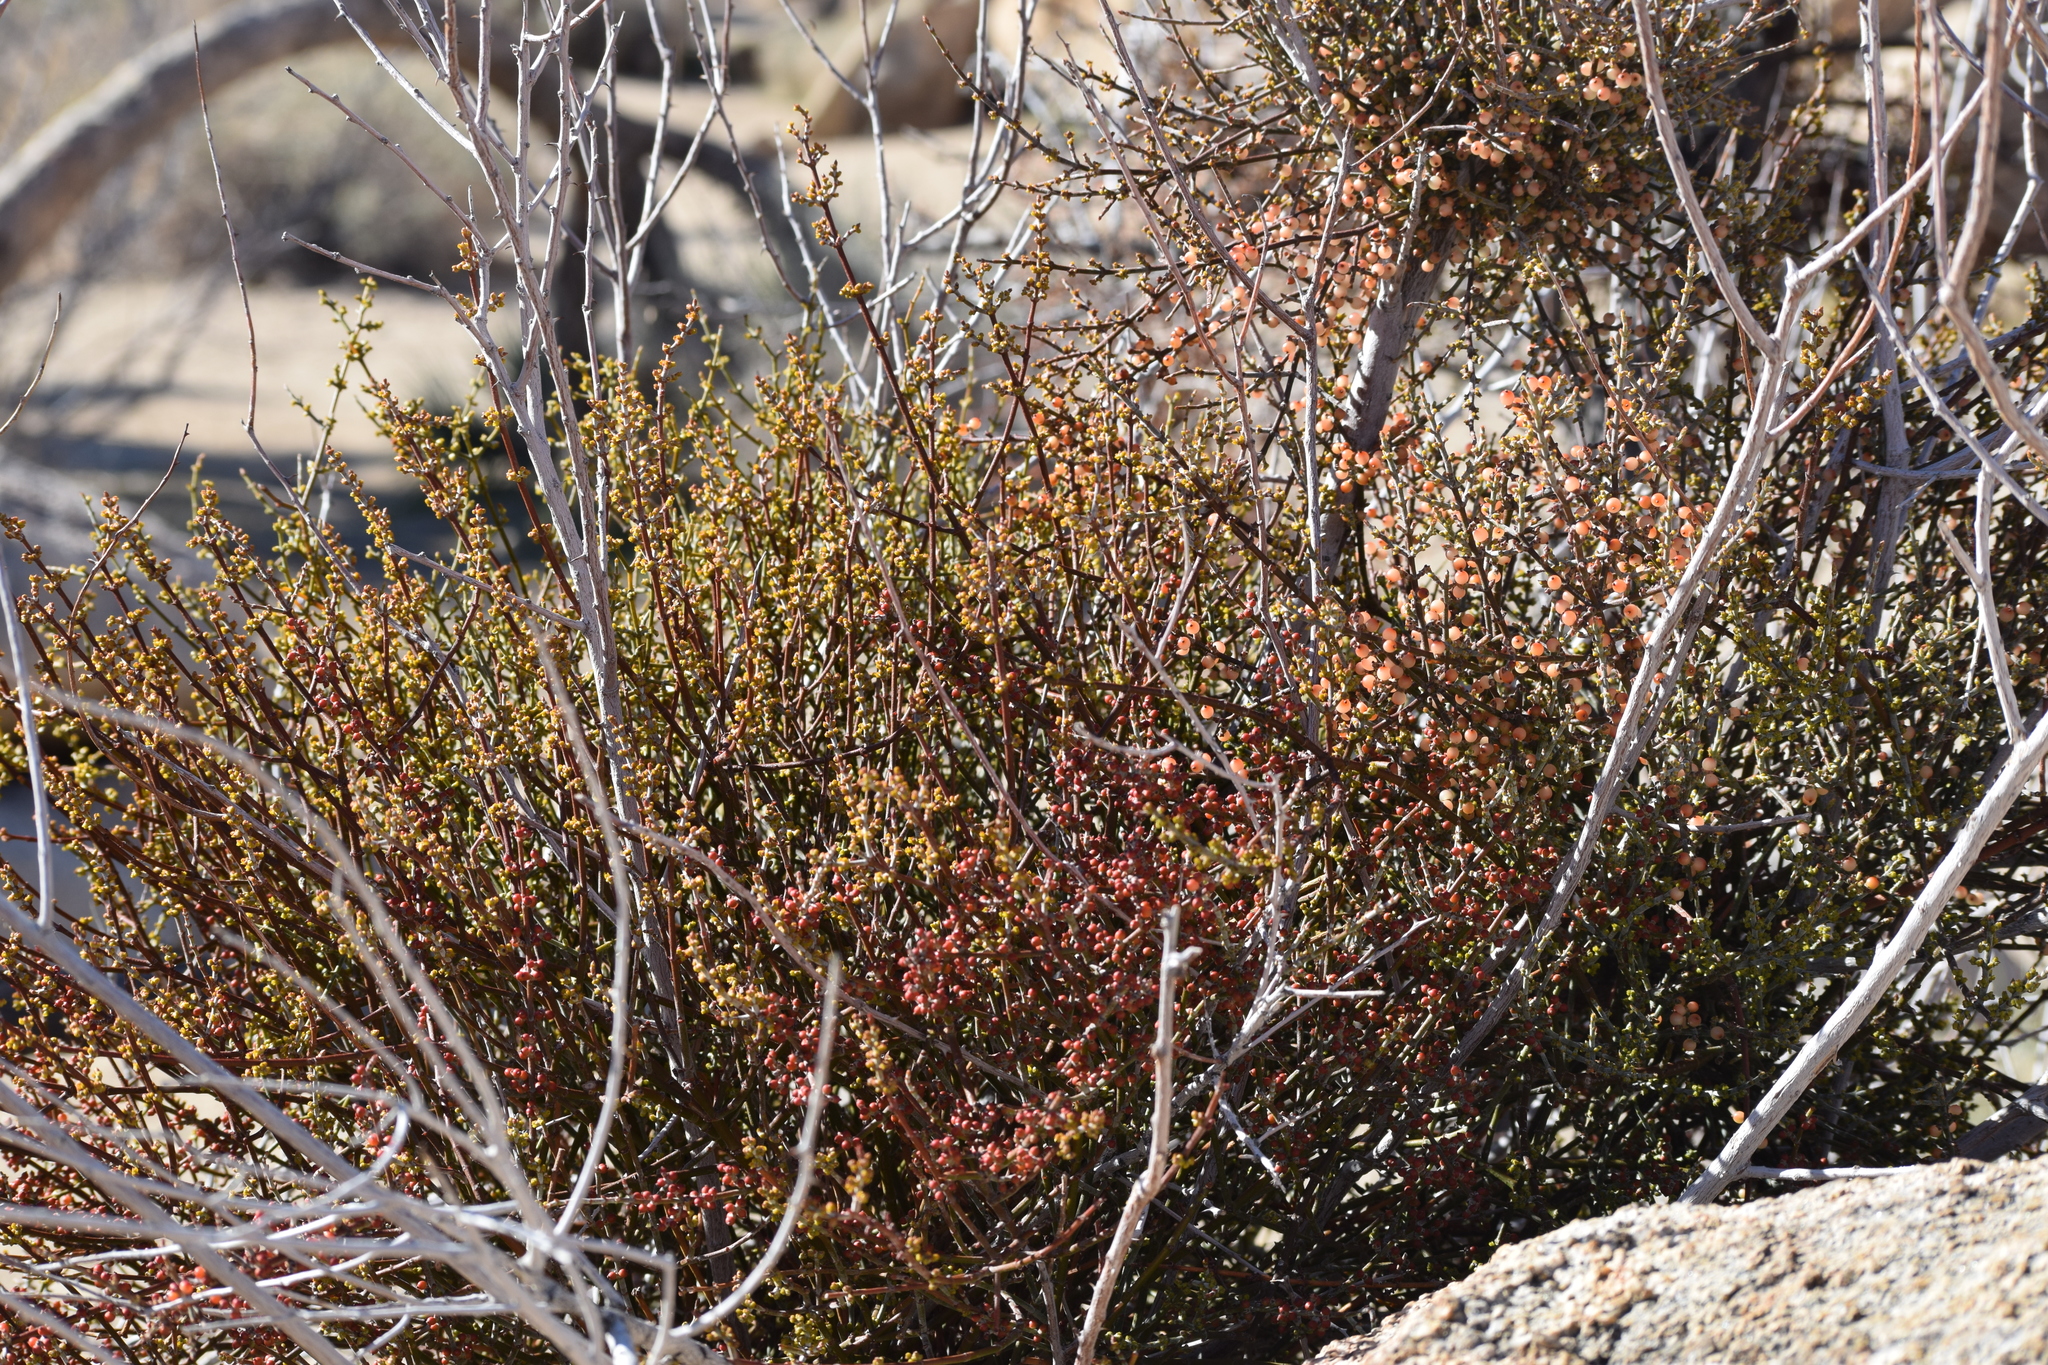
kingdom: Plantae
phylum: Tracheophyta
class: Magnoliopsida
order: Santalales
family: Viscaceae
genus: Phoradendron
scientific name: Phoradendron californicum
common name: Acacia mistletoe
